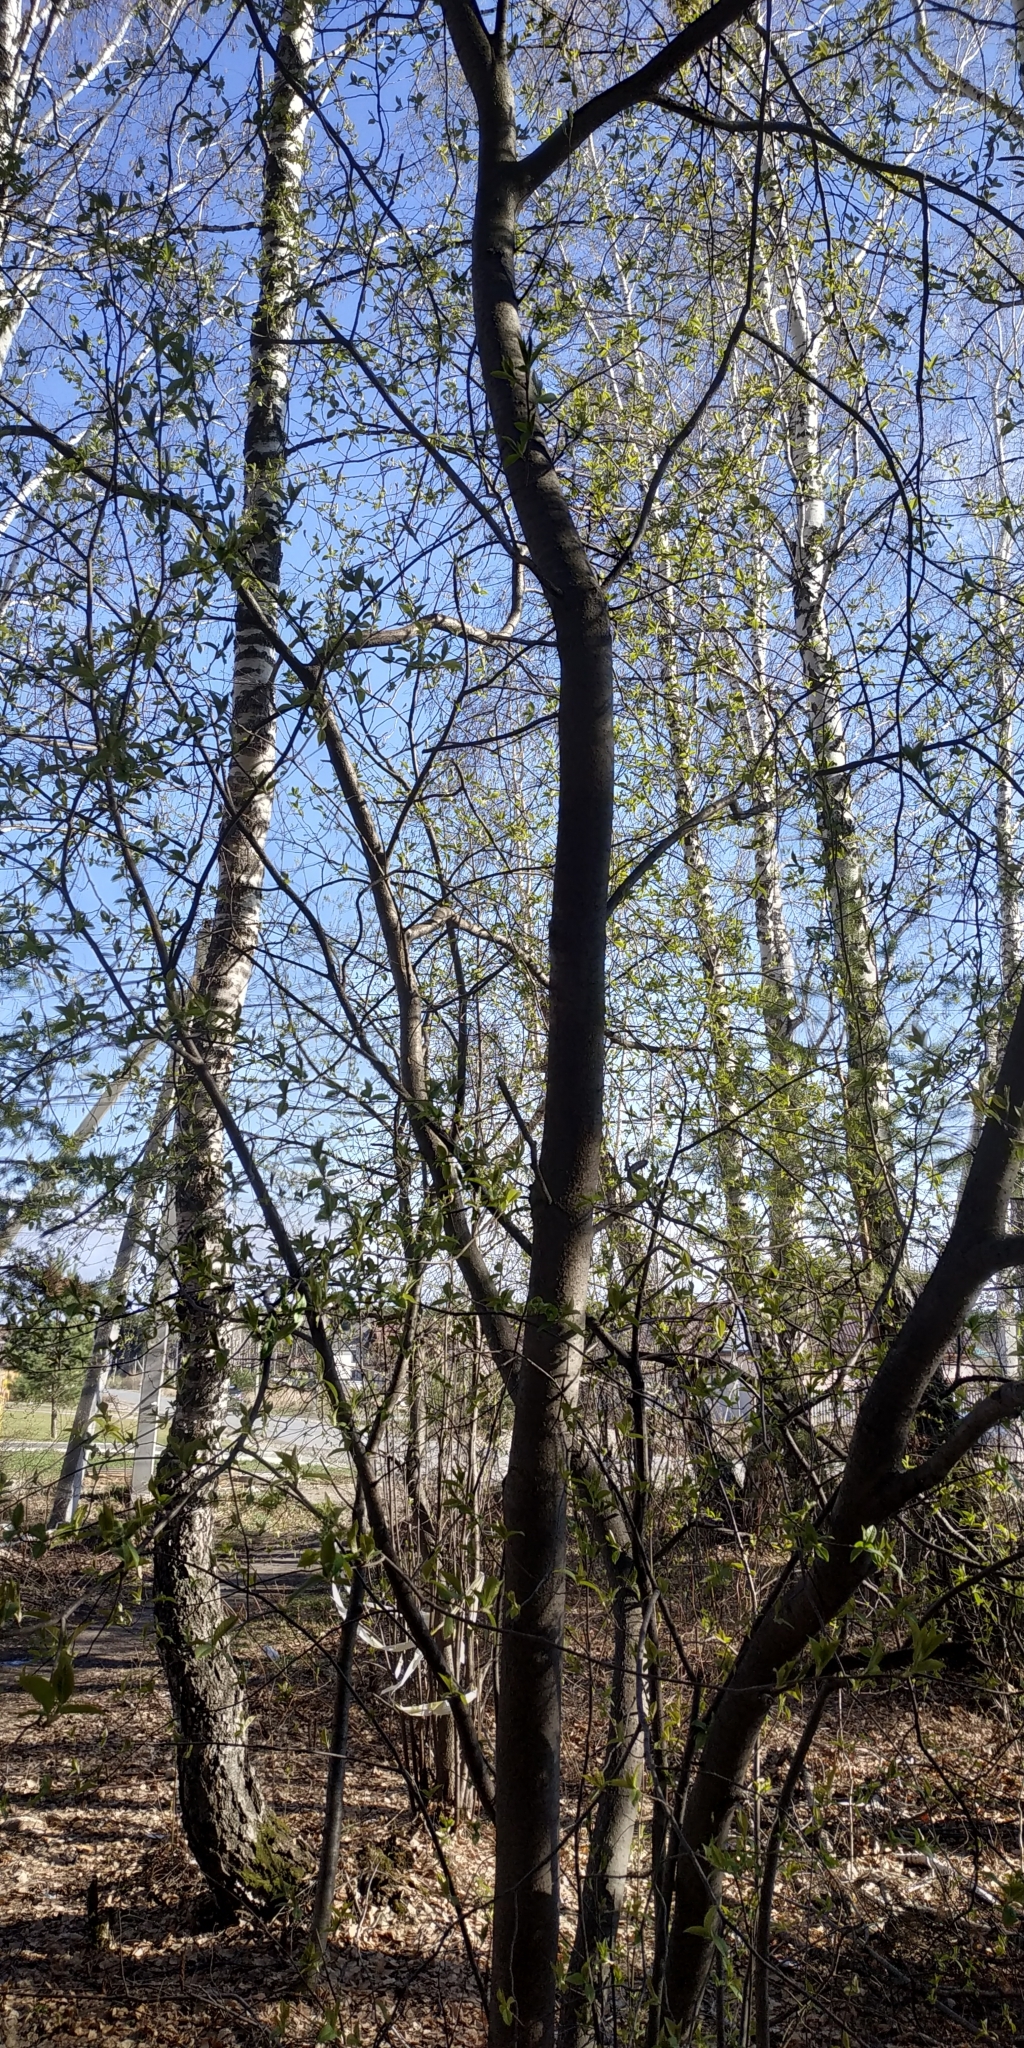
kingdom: Plantae
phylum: Tracheophyta
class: Magnoliopsida
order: Rosales
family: Rosaceae
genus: Prunus
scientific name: Prunus padus
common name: Bird cherry
